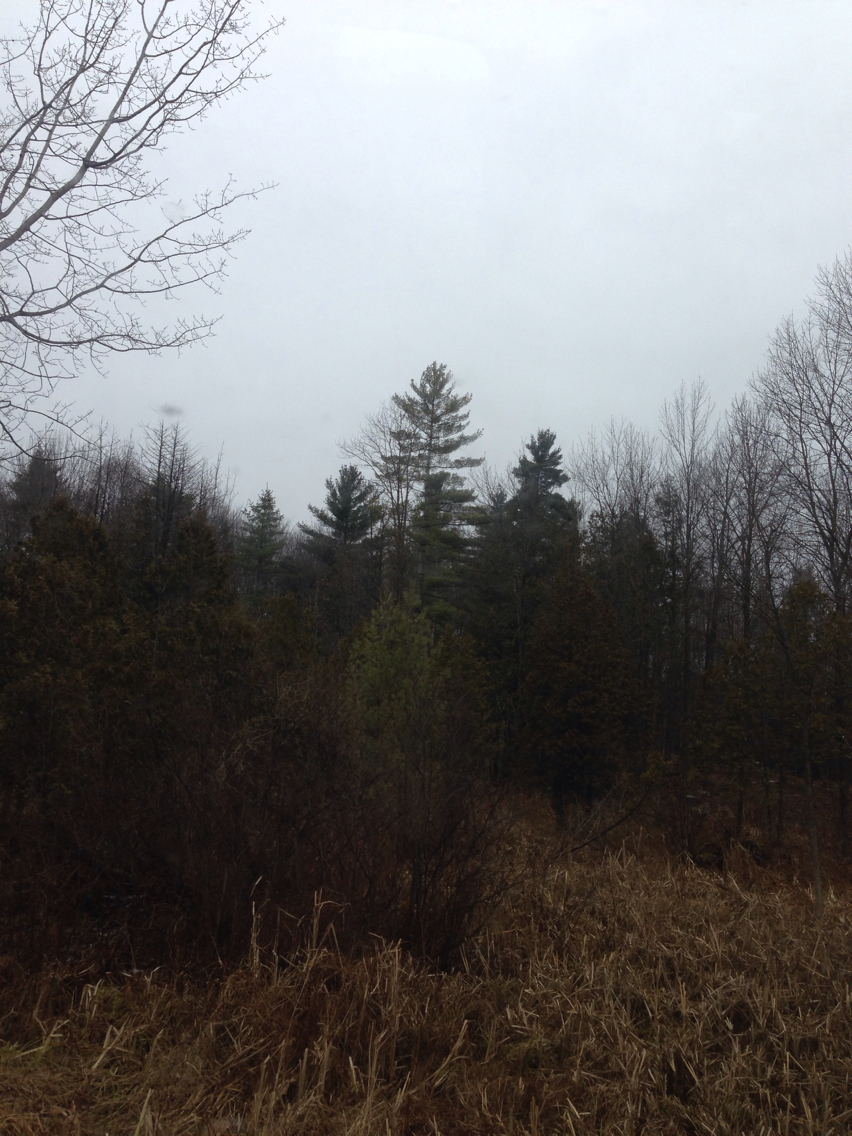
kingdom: Plantae
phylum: Tracheophyta
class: Pinopsida
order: Pinales
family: Pinaceae
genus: Pinus
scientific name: Pinus strobus
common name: Weymouth pine
